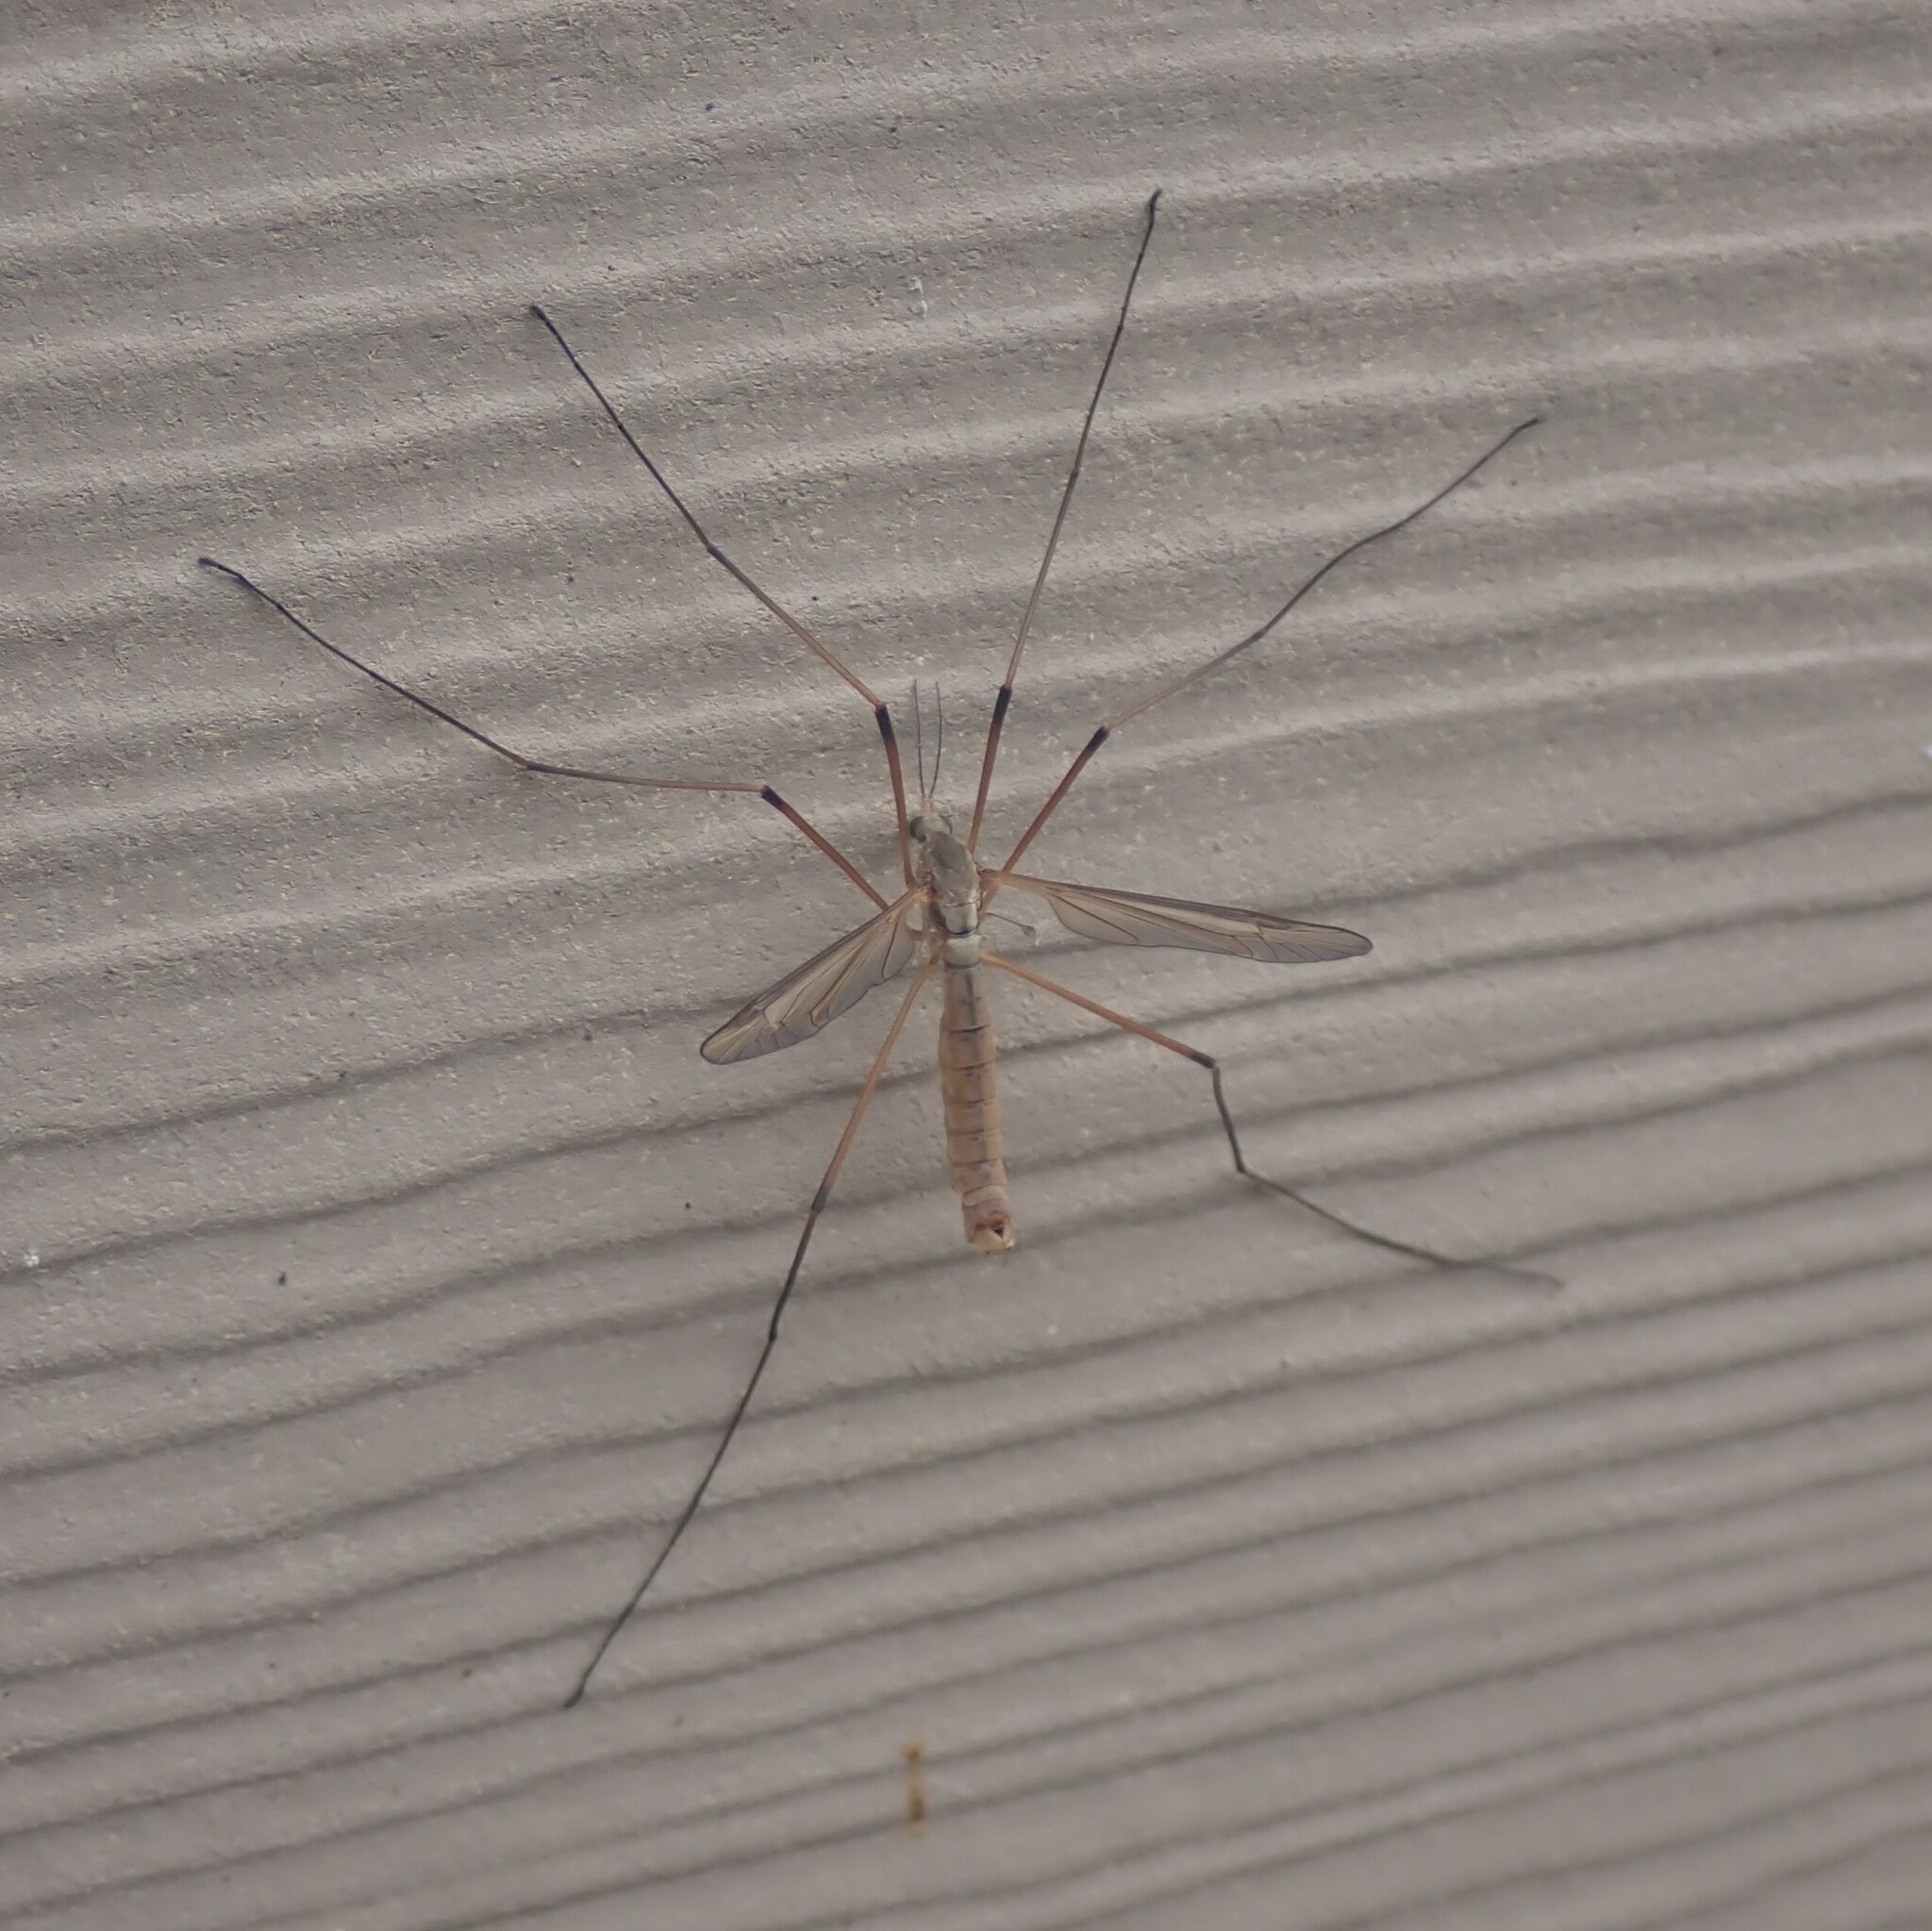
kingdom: Animalia
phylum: Arthropoda
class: Insecta
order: Diptera
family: Tipulidae
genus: Tipula
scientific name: Tipula paludosa
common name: European cranefly
